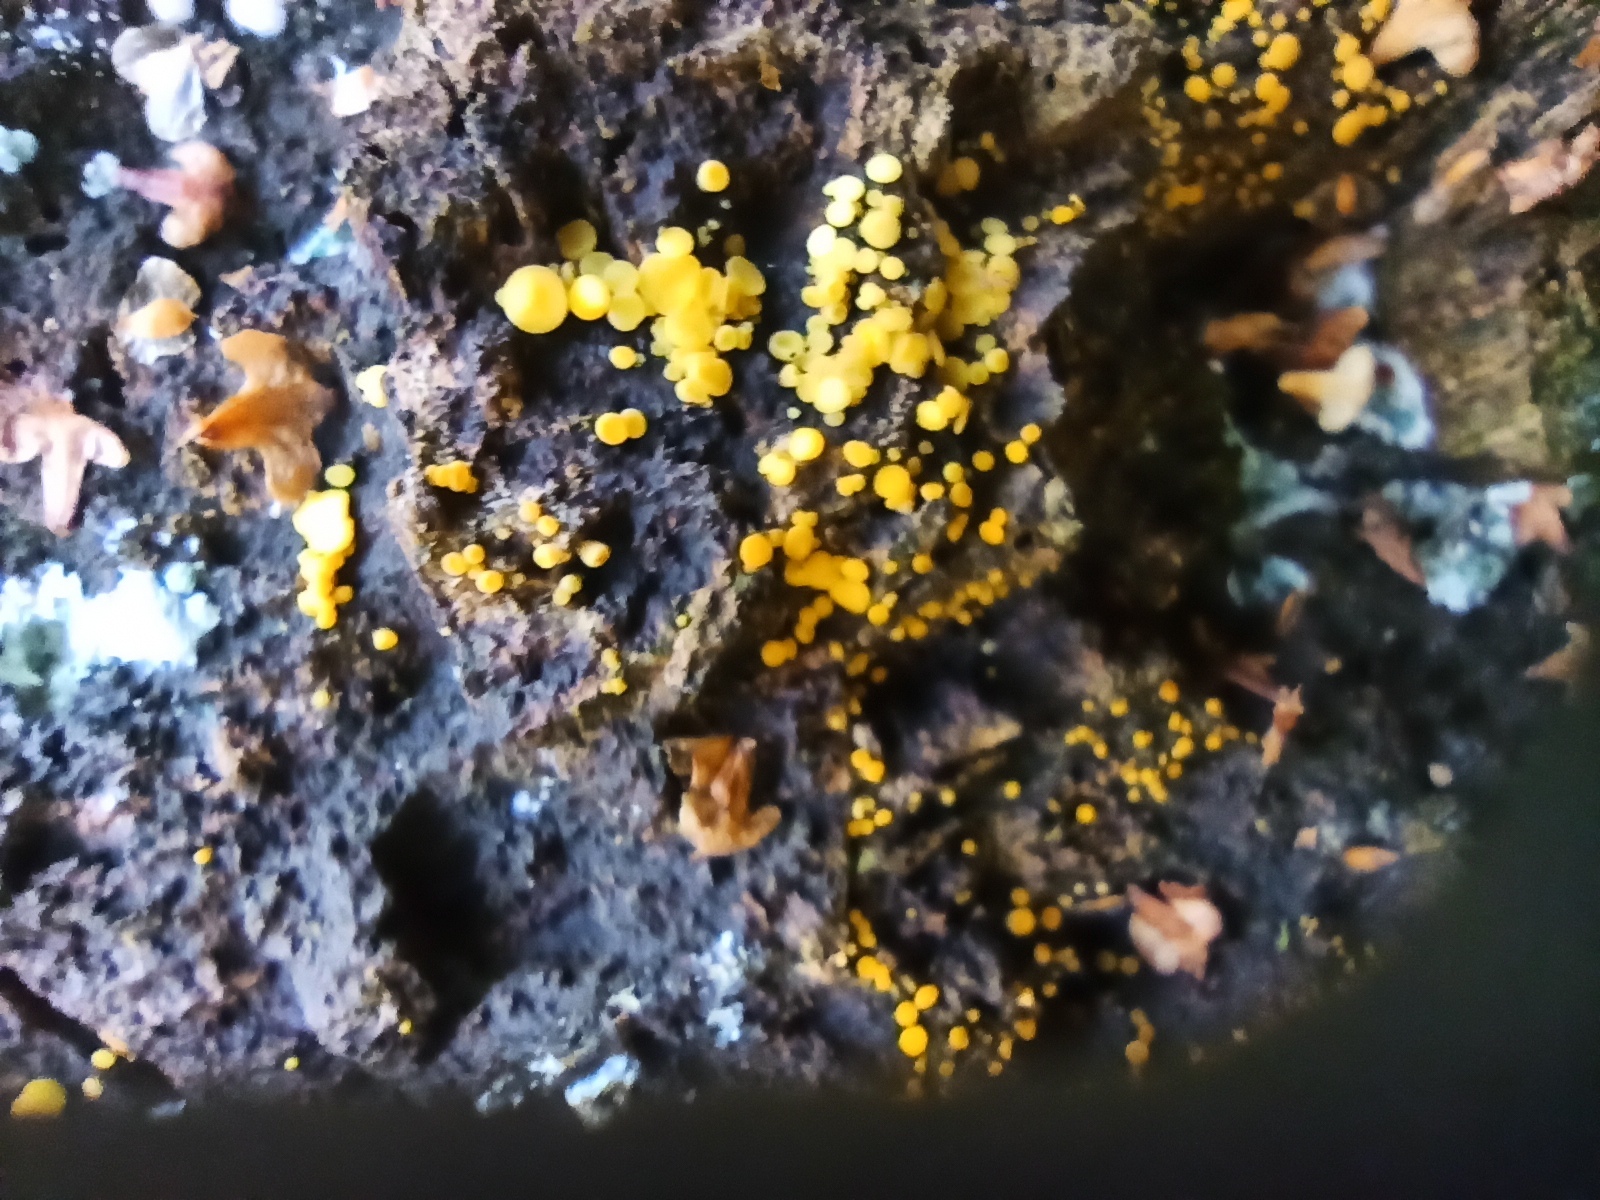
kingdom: Fungi
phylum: Ascomycota
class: Leotiomycetes
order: Helotiales
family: Pezizellaceae
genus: Calycina
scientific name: Calycina citrina
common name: Yellow fairy cups
